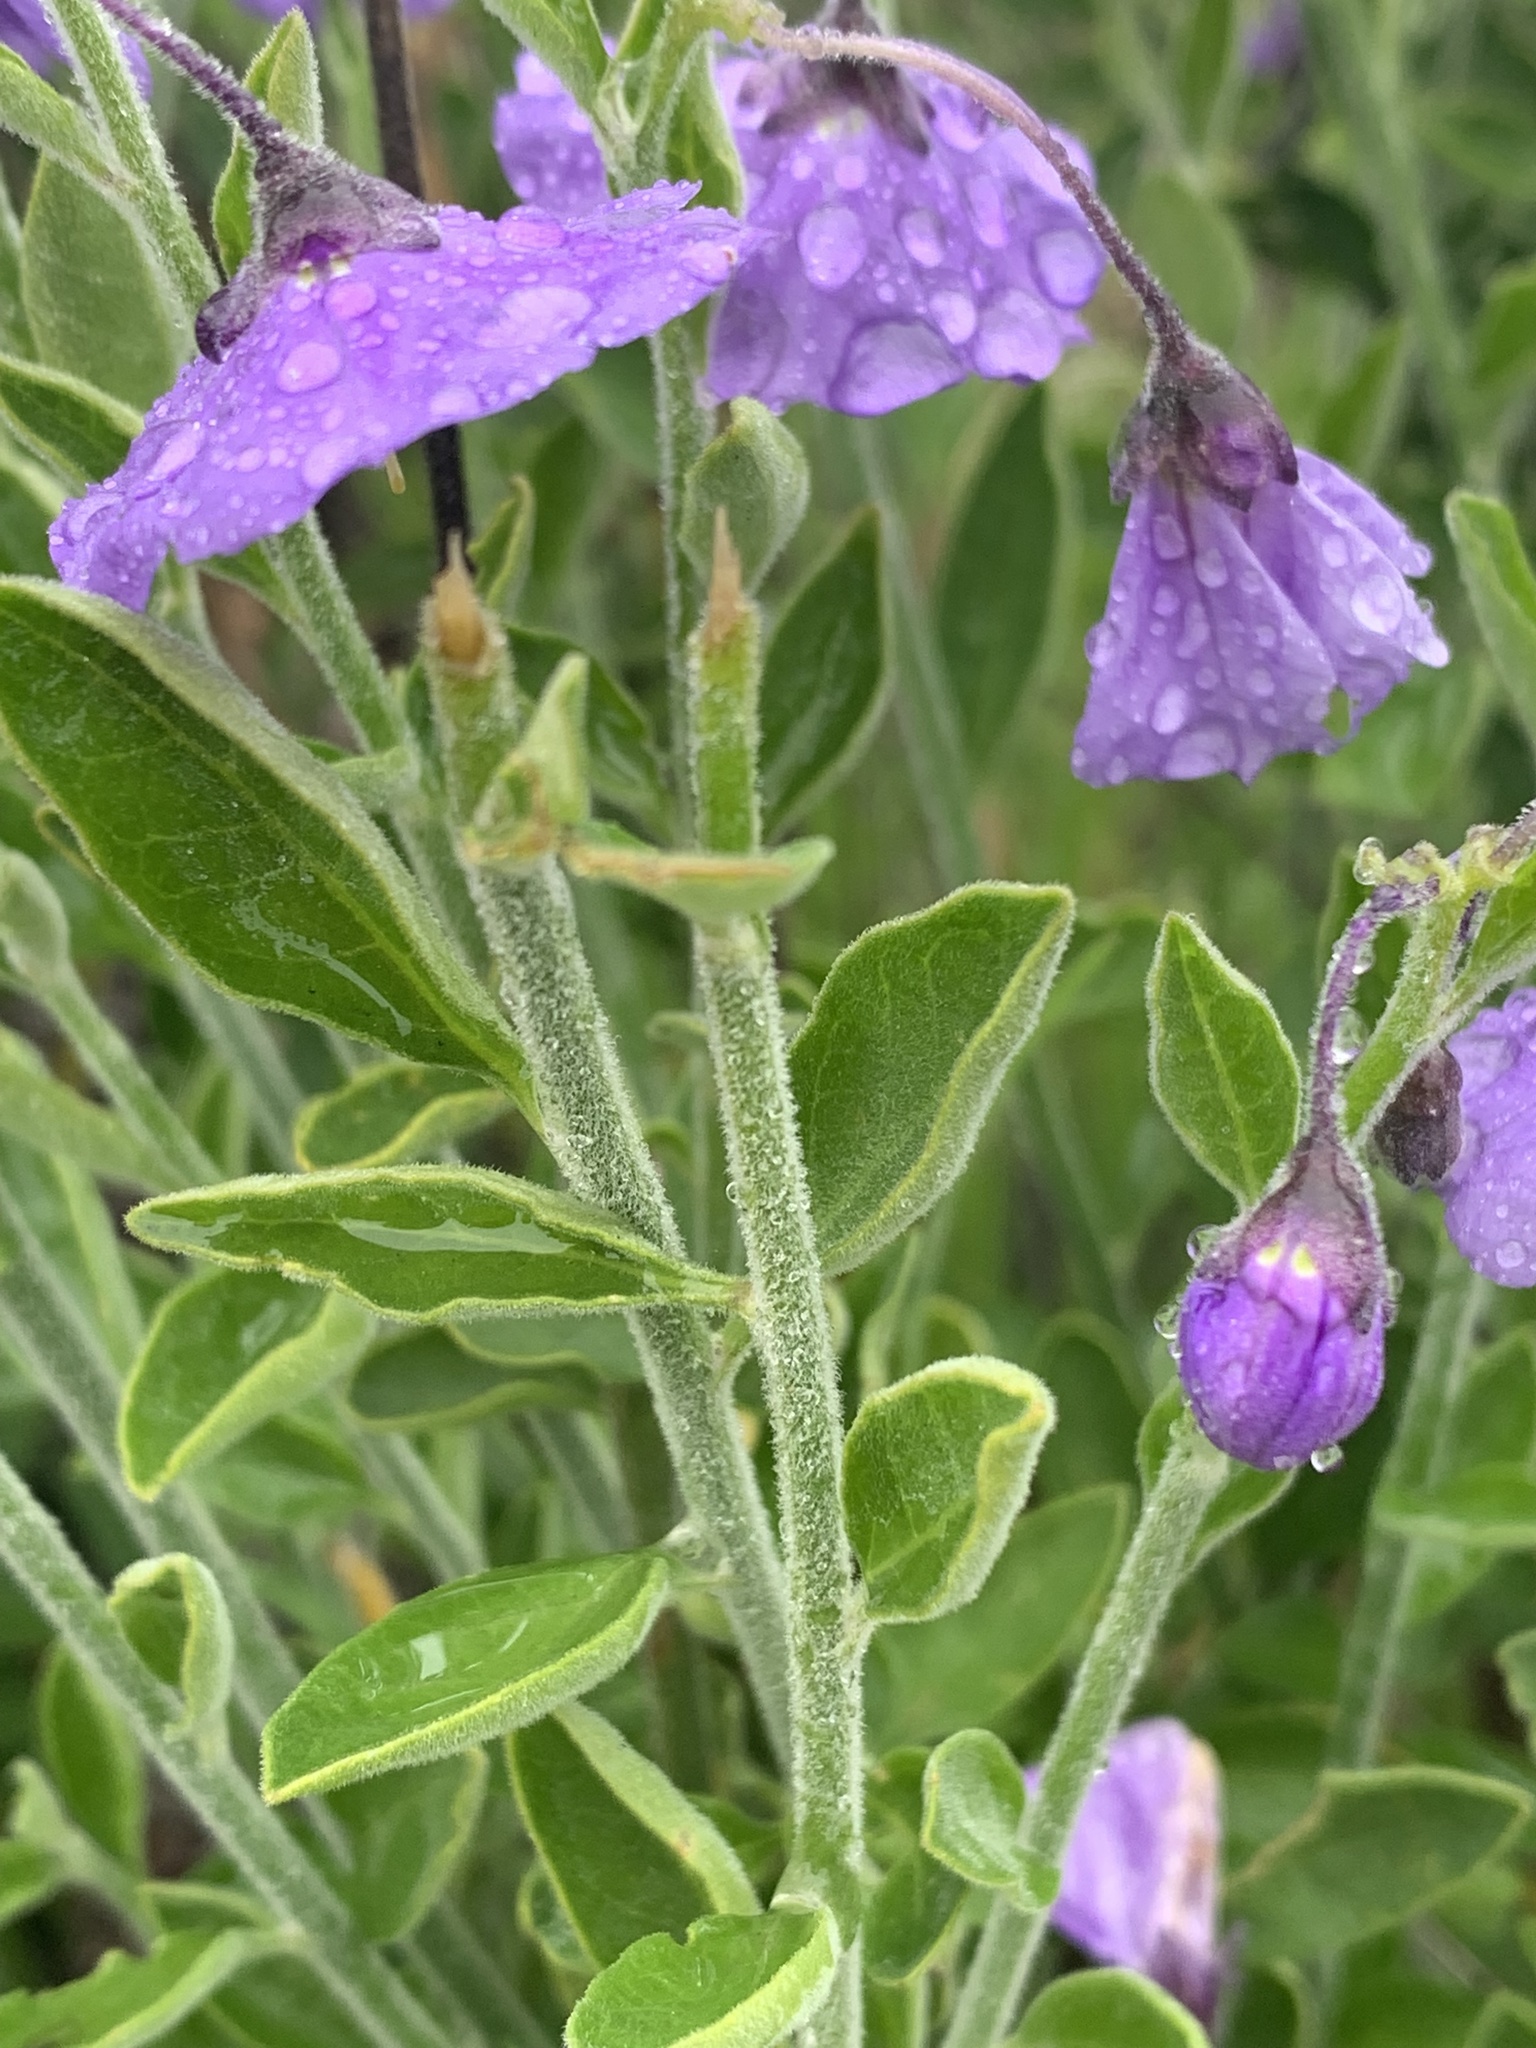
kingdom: Plantae
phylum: Tracheophyta
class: Magnoliopsida
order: Solanales
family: Solanaceae
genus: Solanum
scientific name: Solanum umbelliferum
